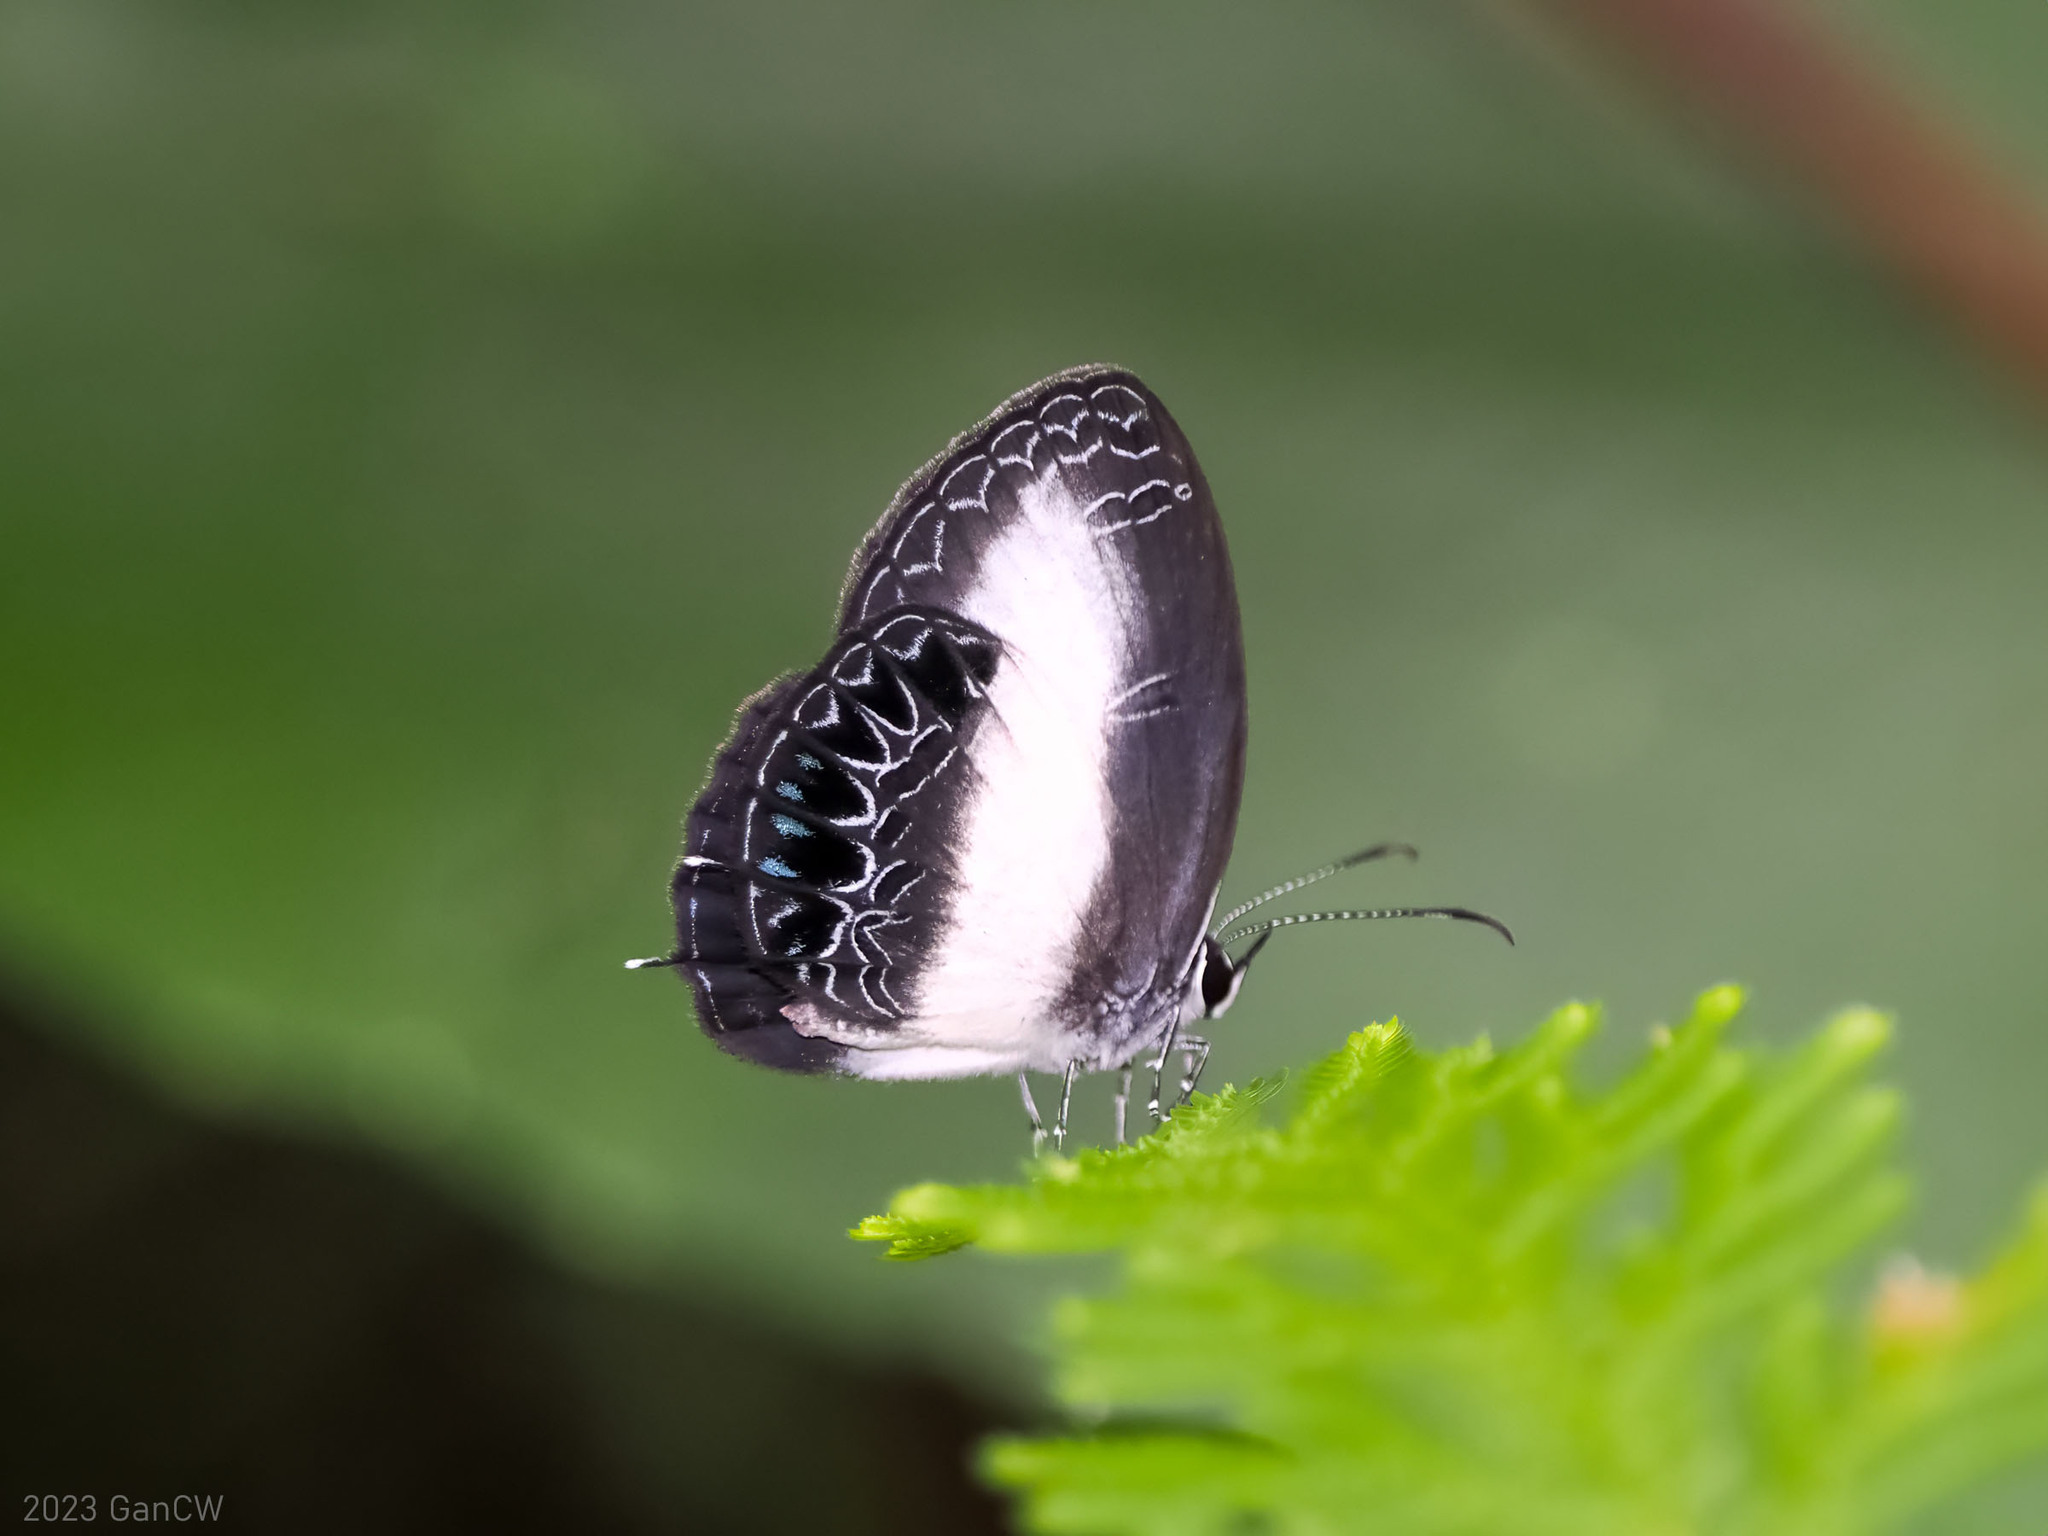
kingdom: Animalia
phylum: Arthropoda
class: Insecta
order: Lepidoptera
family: Lycaenidae
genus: Jamides
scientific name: Jamides coritus
